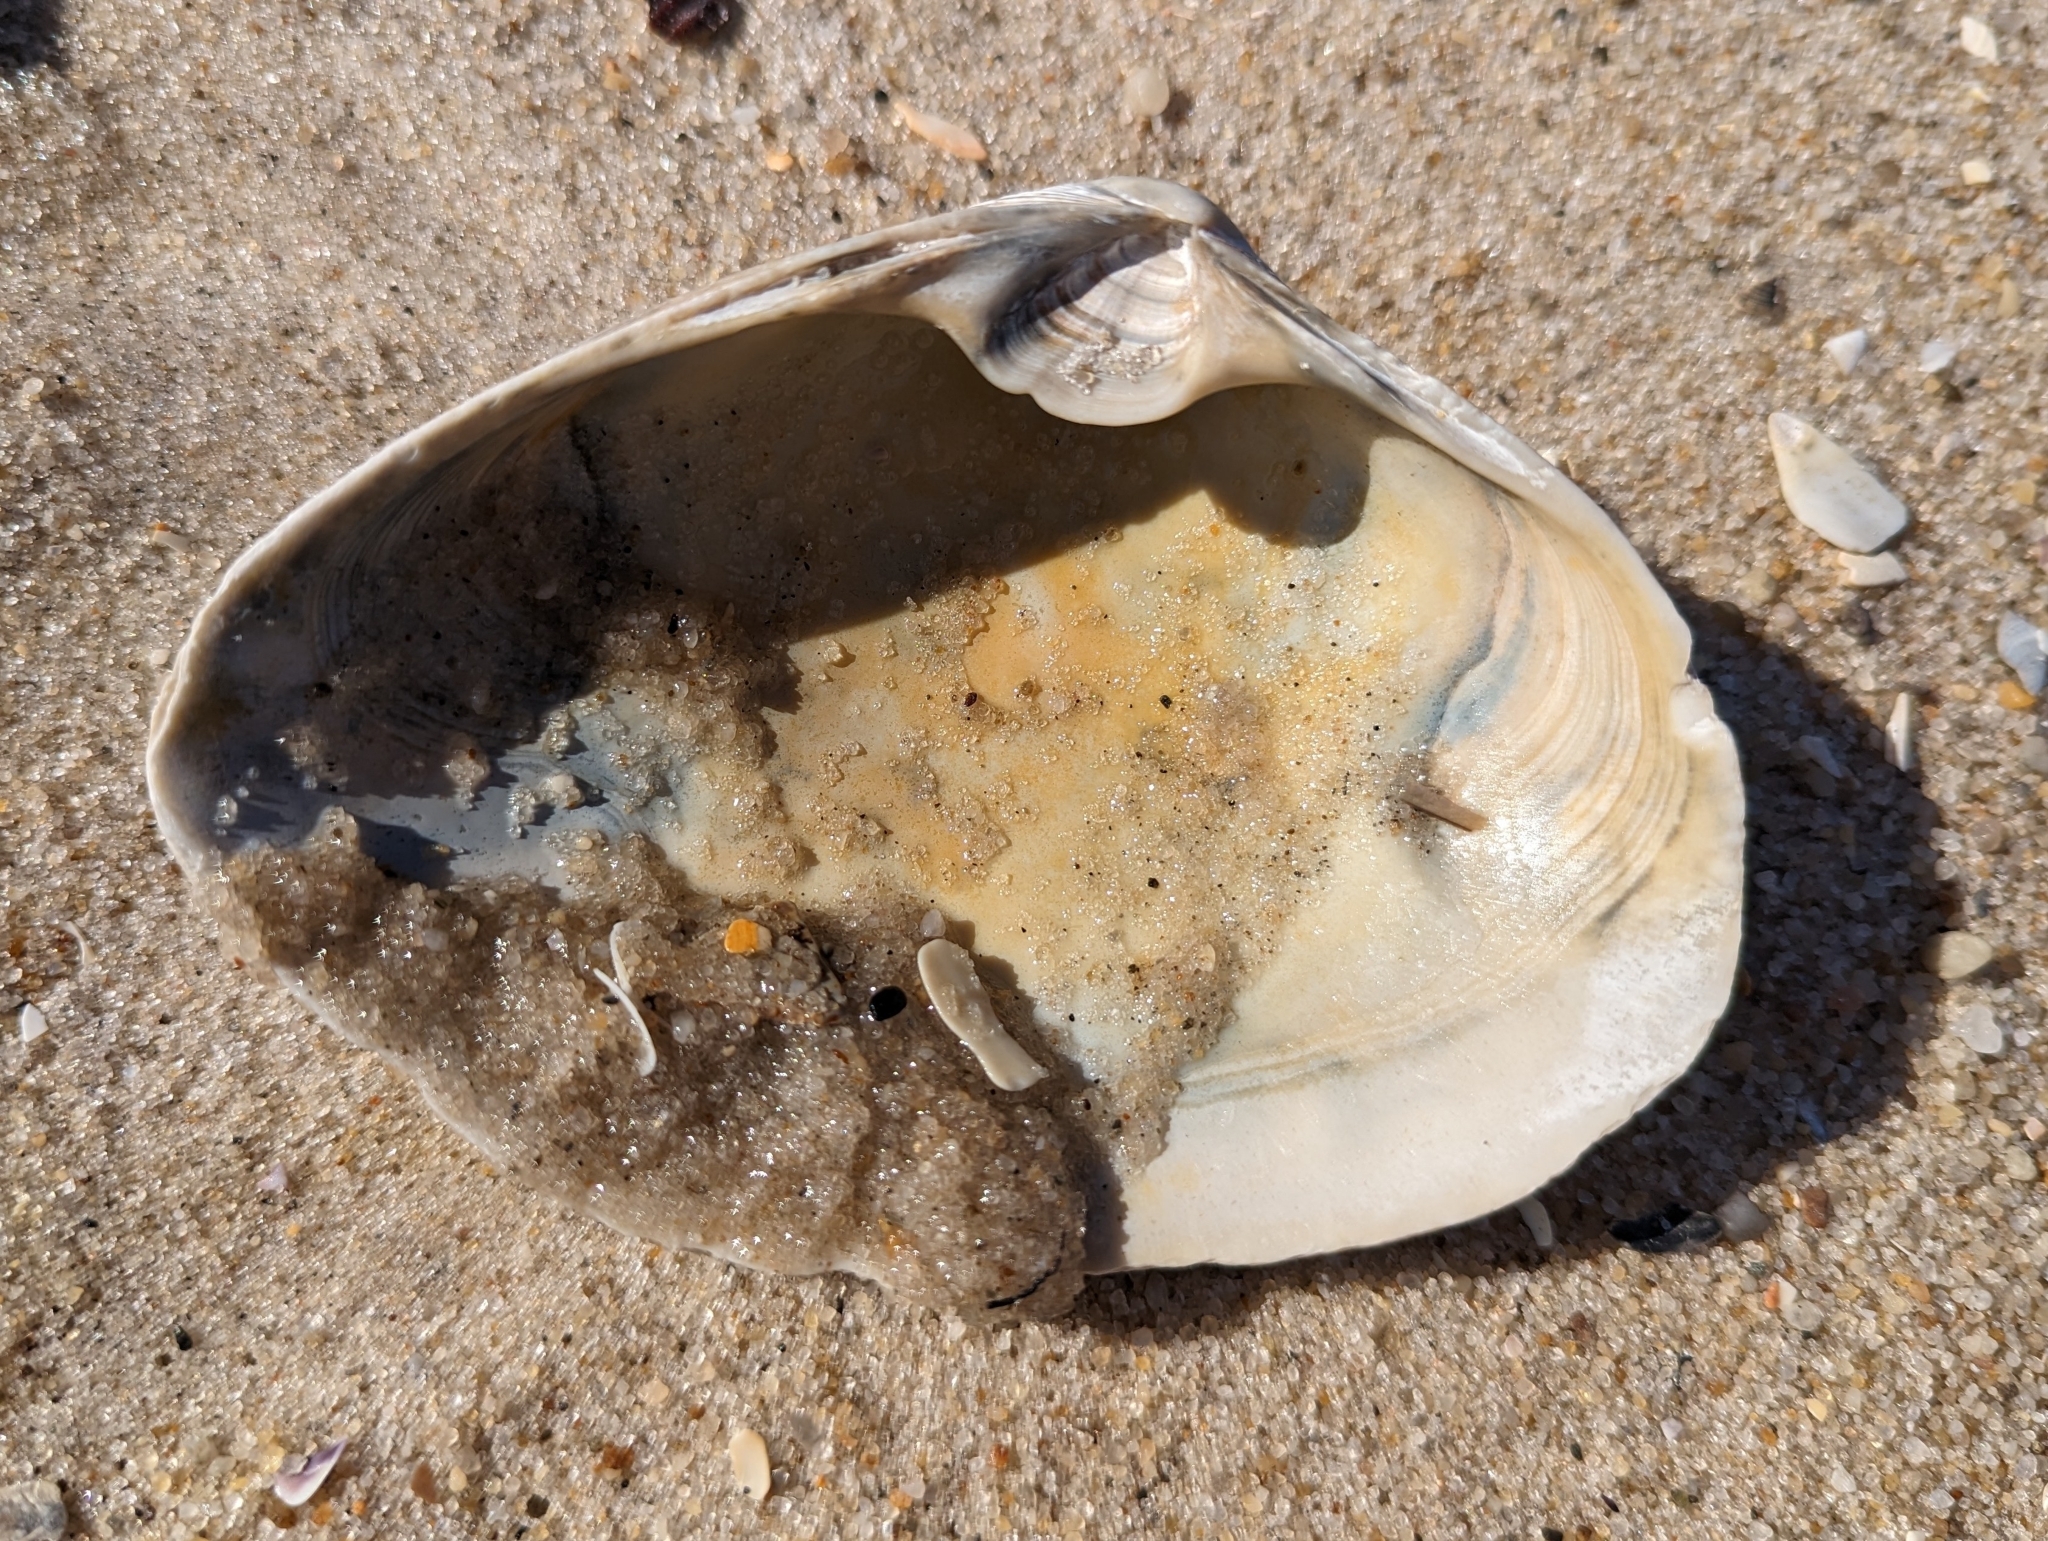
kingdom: Animalia
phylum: Mollusca
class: Bivalvia
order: Venerida
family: Mactridae
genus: Spisula
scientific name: Spisula solidissima
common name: Atlantic surf clam
